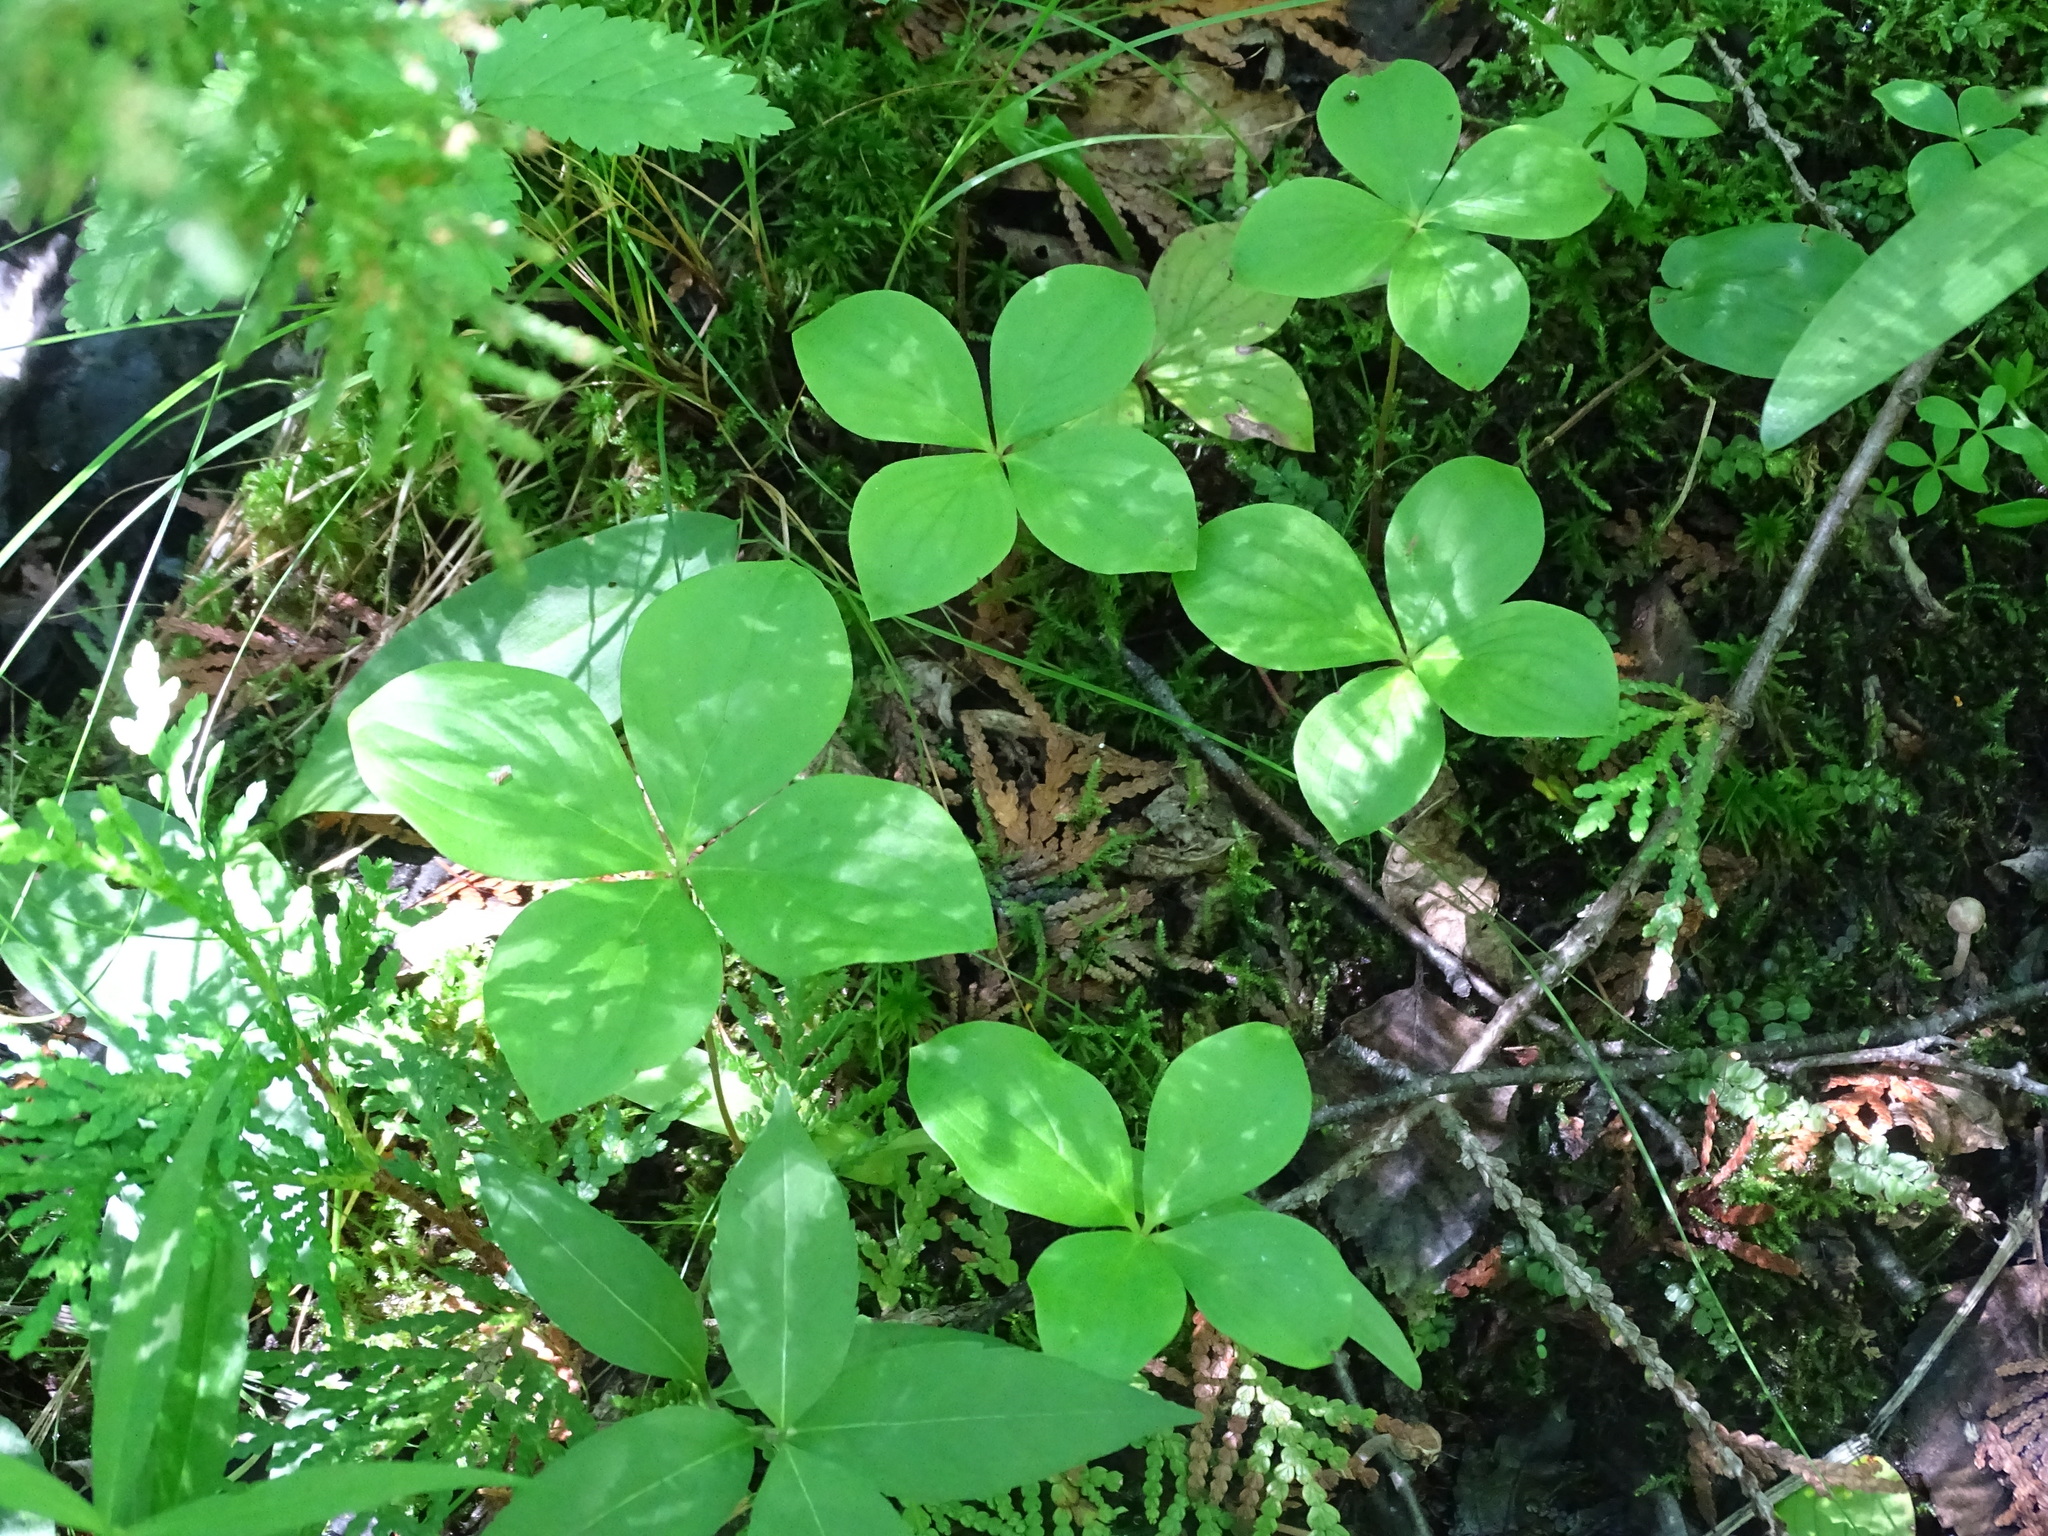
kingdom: Plantae
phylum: Tracheophyta
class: Magnoliopsida
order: Cornales
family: Cornaceae
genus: Cornus
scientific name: Cornus canadensis
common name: Creeping dogwood
